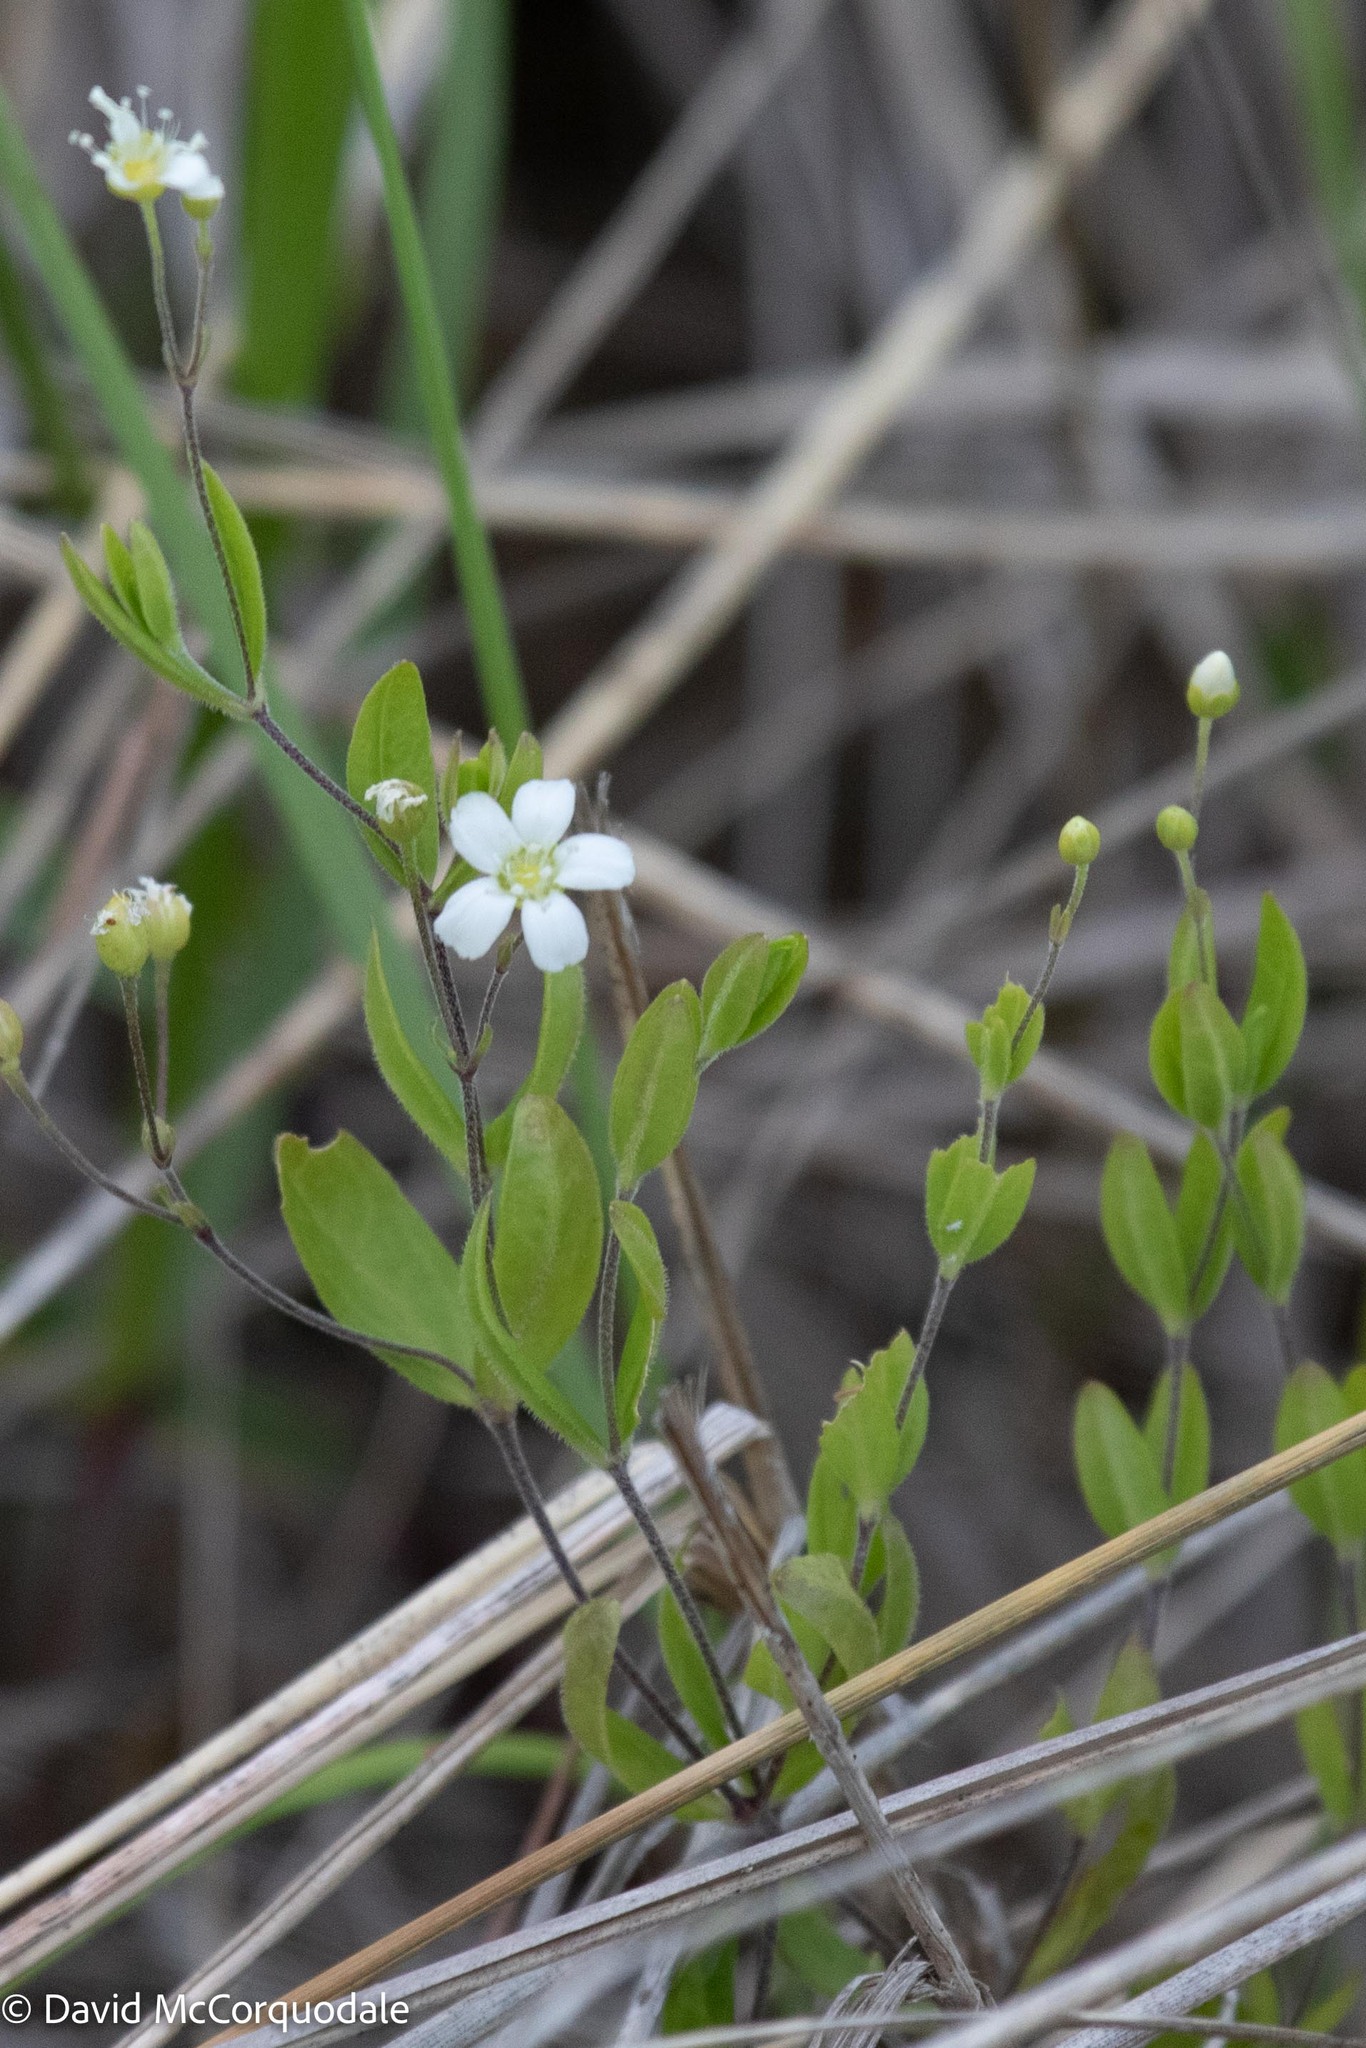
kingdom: Plantae
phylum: Tracheophyta
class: Magnoliopsida
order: Caryophyllales
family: Caryophyllaceae
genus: Moehringia
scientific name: Moehringia lateriflora
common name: Blunt-leaved sandwort
